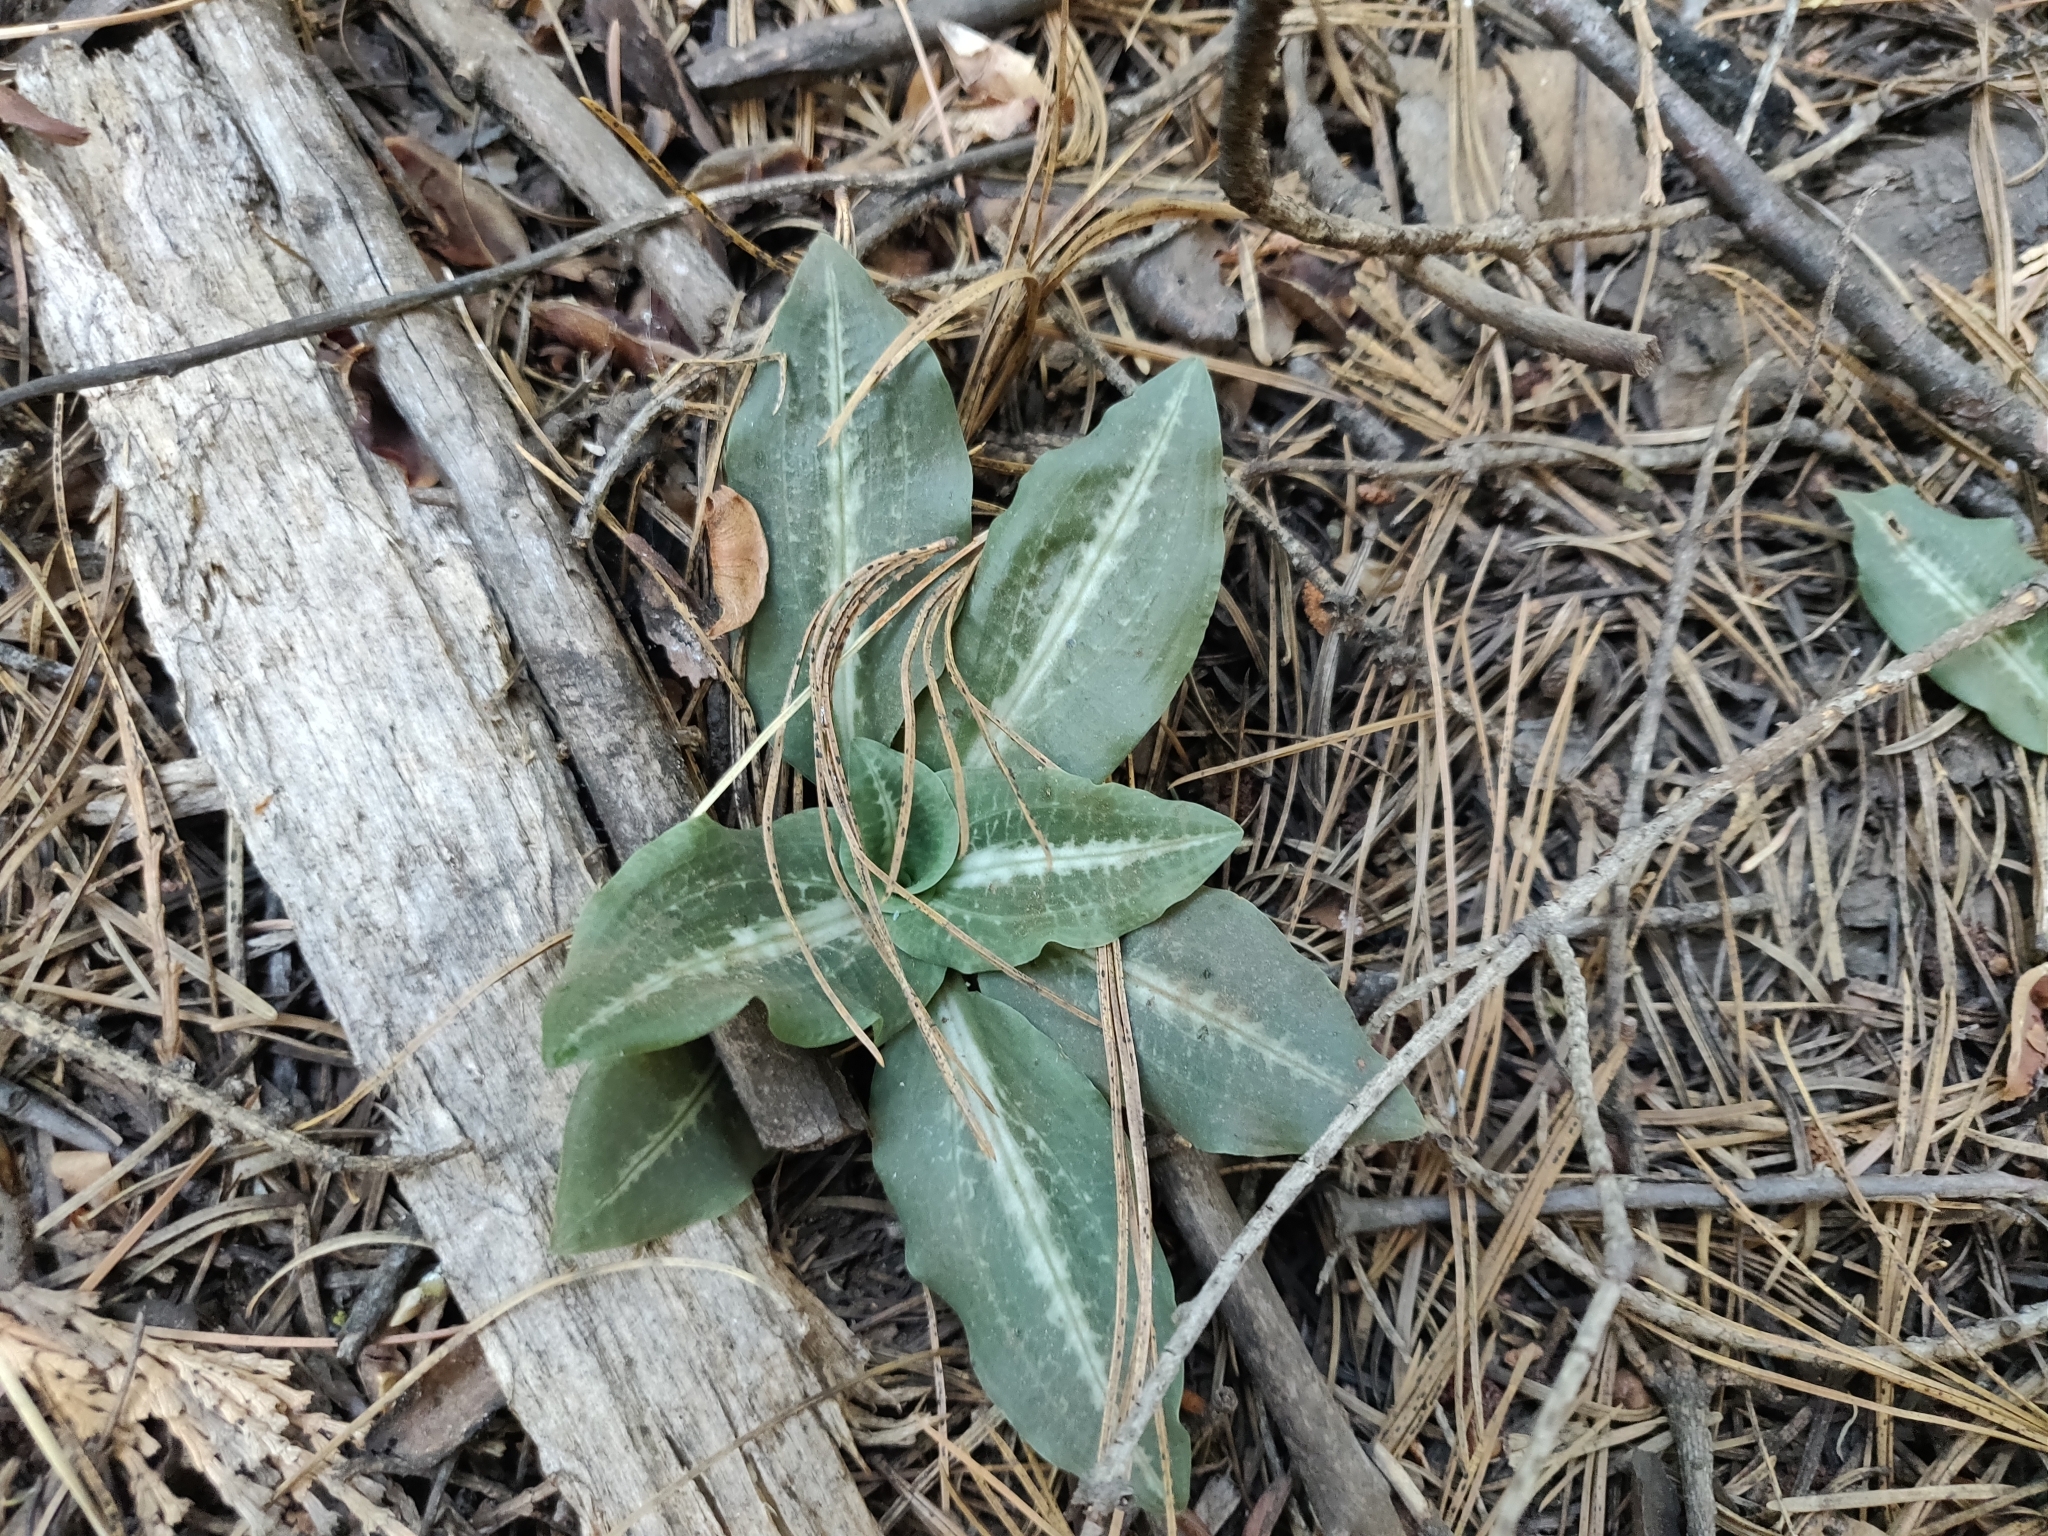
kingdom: Plantae
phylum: Tracheophyta
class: Liliopsida
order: Asparagales
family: Orchidaceae
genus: Goodyera
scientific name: Goodyera oblongifolia
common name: Giant rattlesnake-plantain
